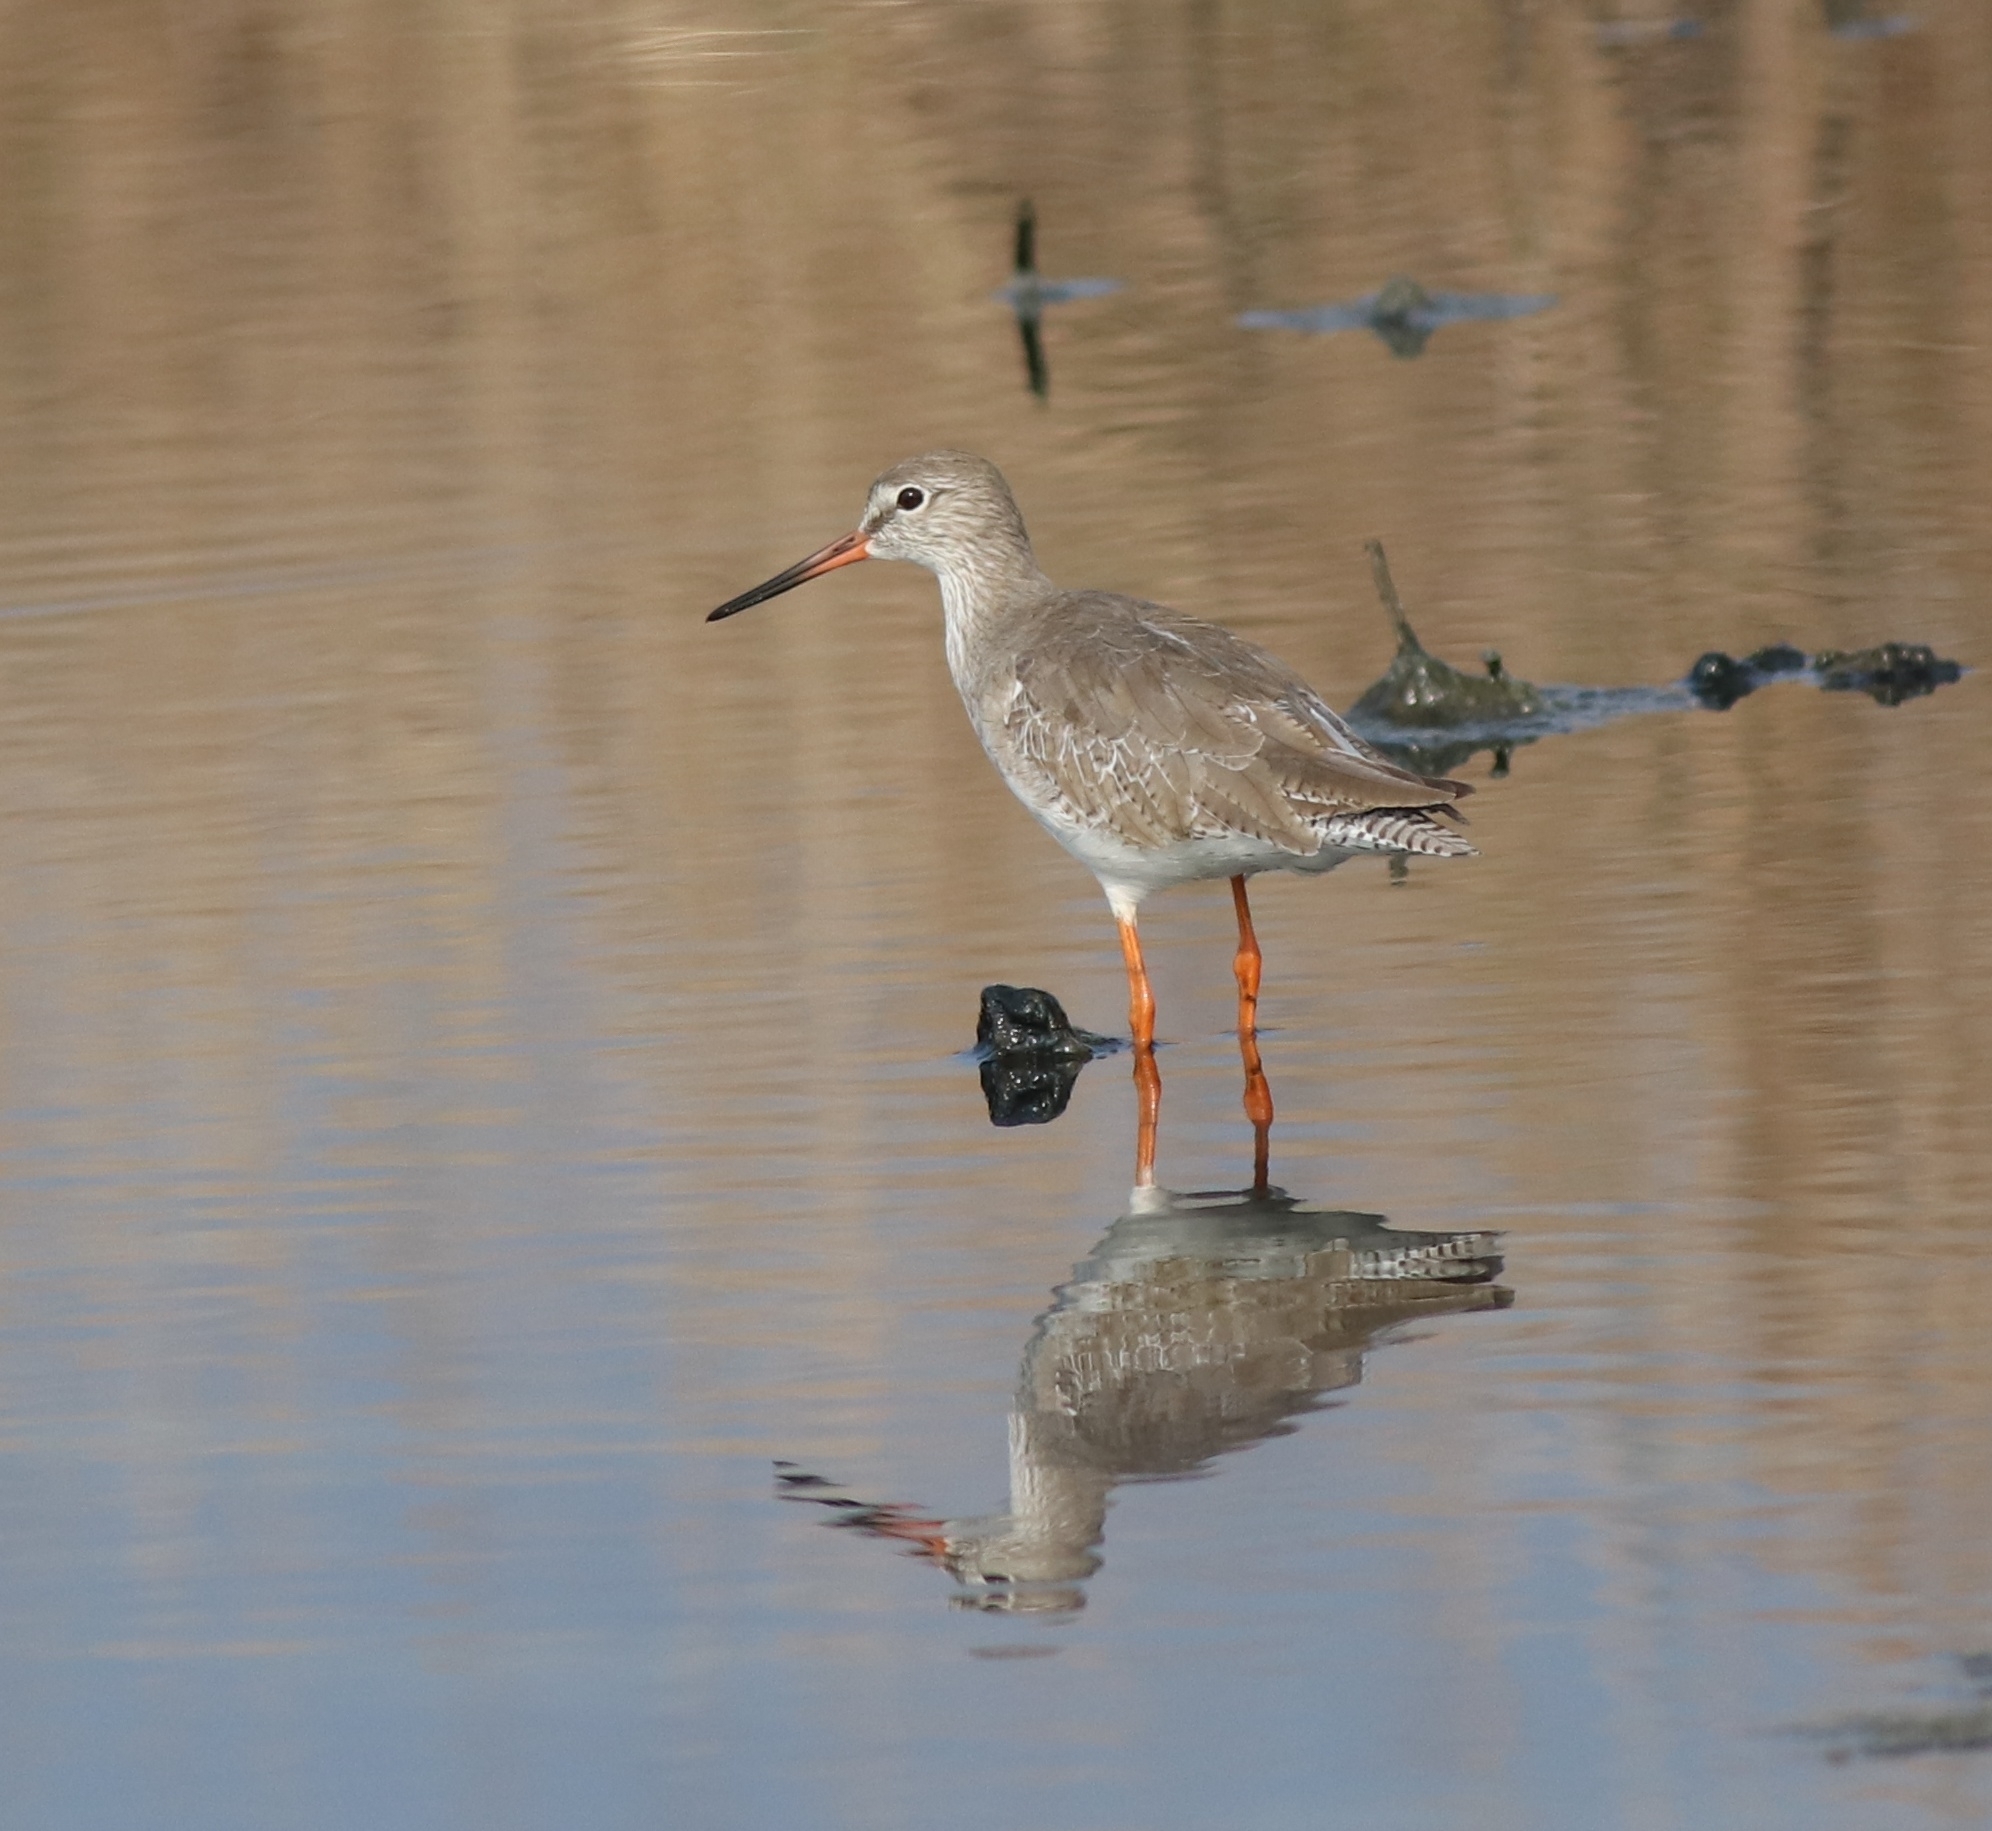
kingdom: Animalia
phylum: Chordata
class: Aves
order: Charadriiformes
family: Scolopacidae
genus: Tringa
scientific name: Tringa totanus
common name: Common redshank
